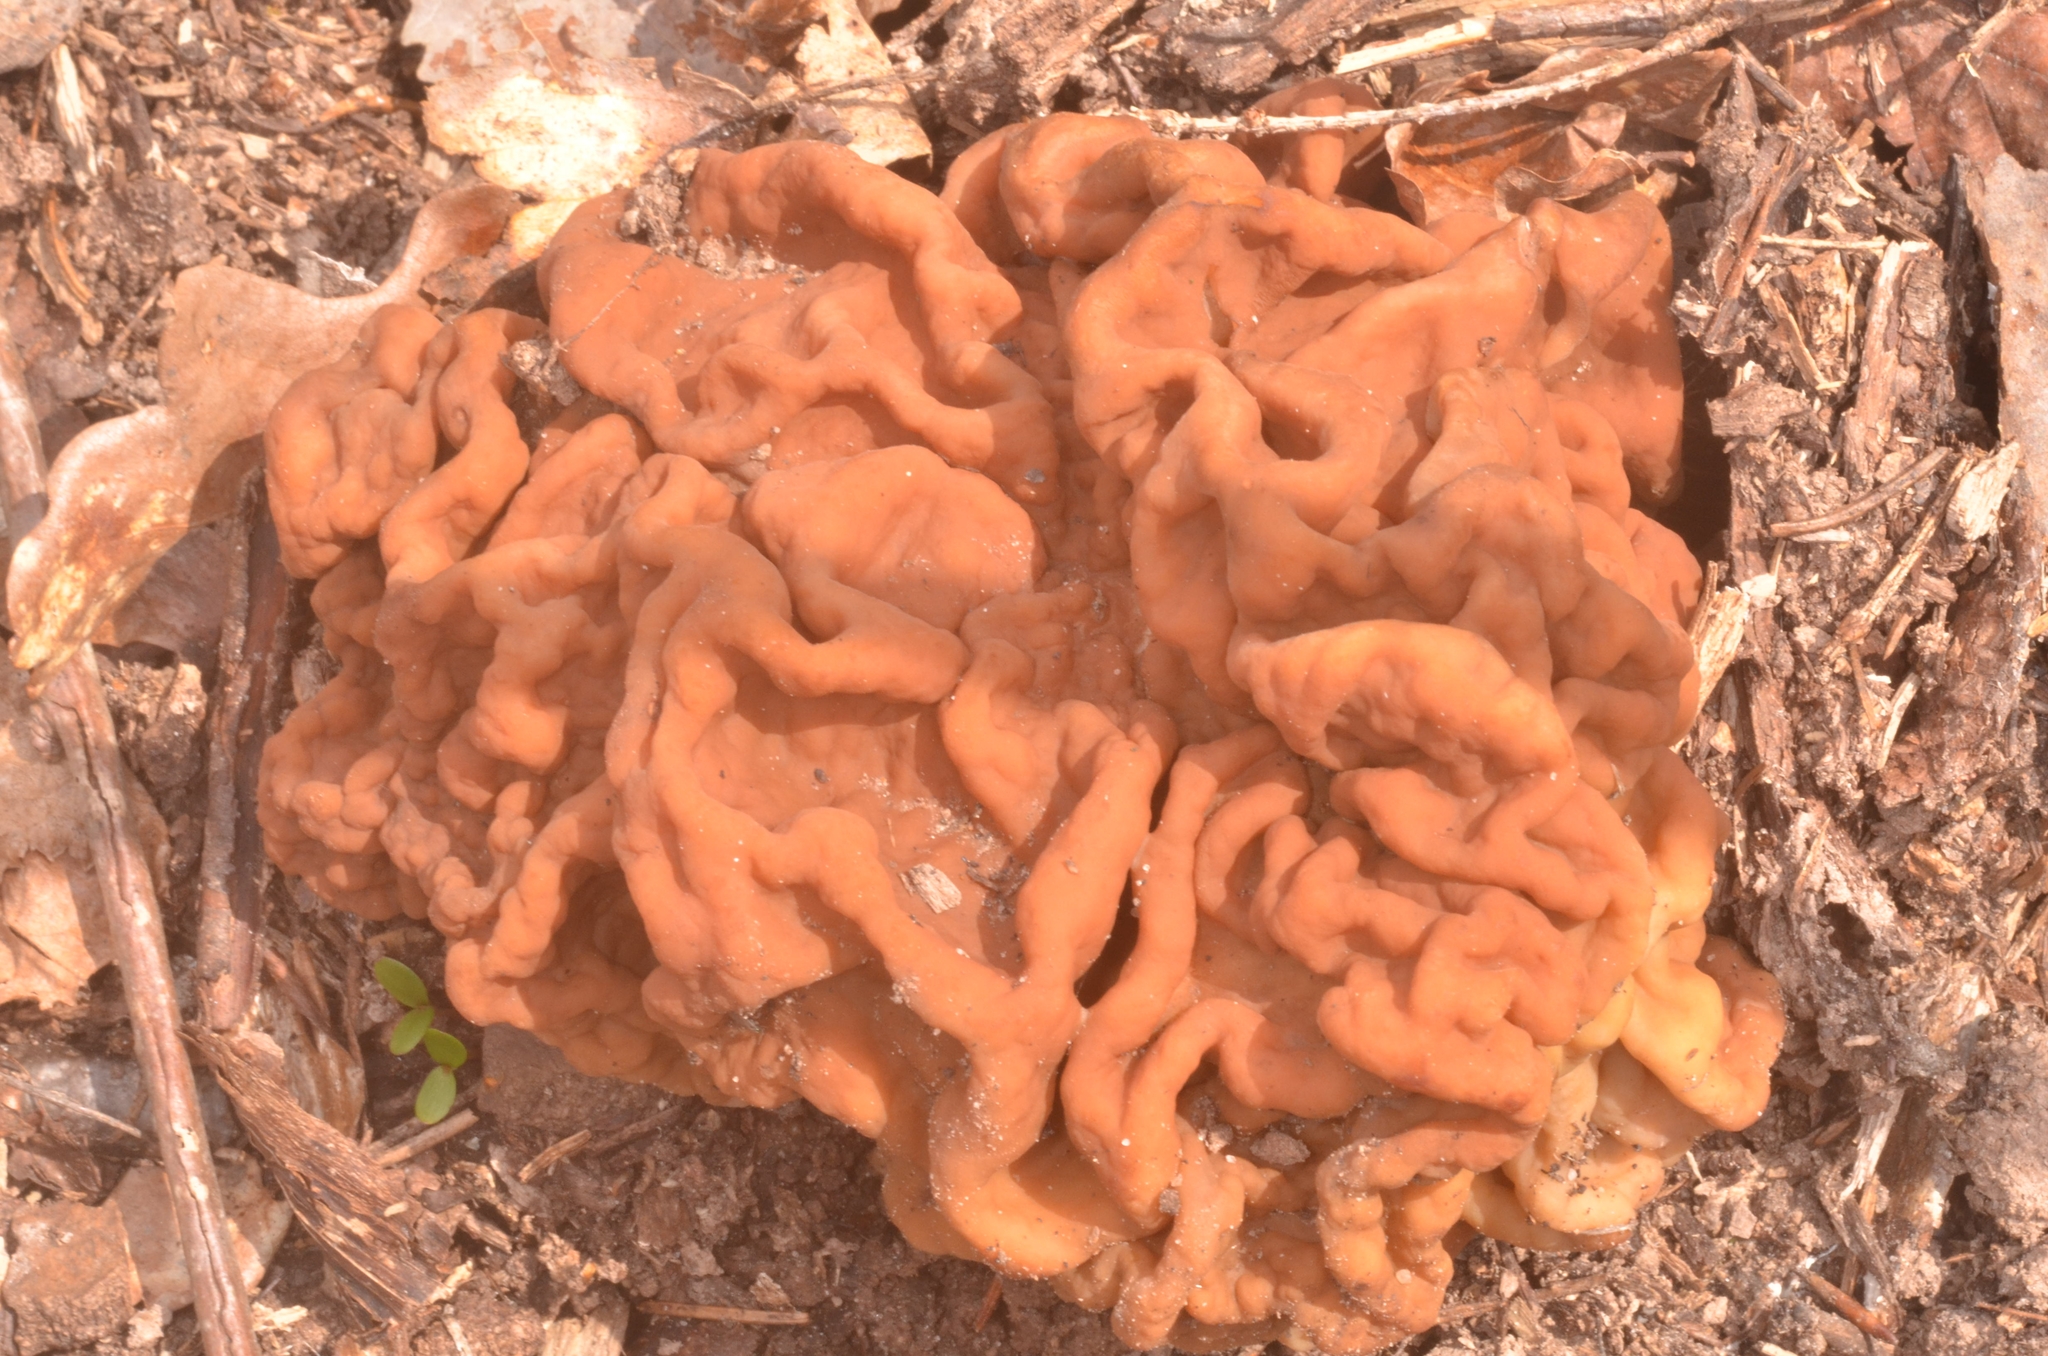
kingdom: Fungi
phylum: Ascomycota
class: Pezizomycetes
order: Pezizales
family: Discinaceae
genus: Gyromitra
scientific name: Gyromitra gigas
